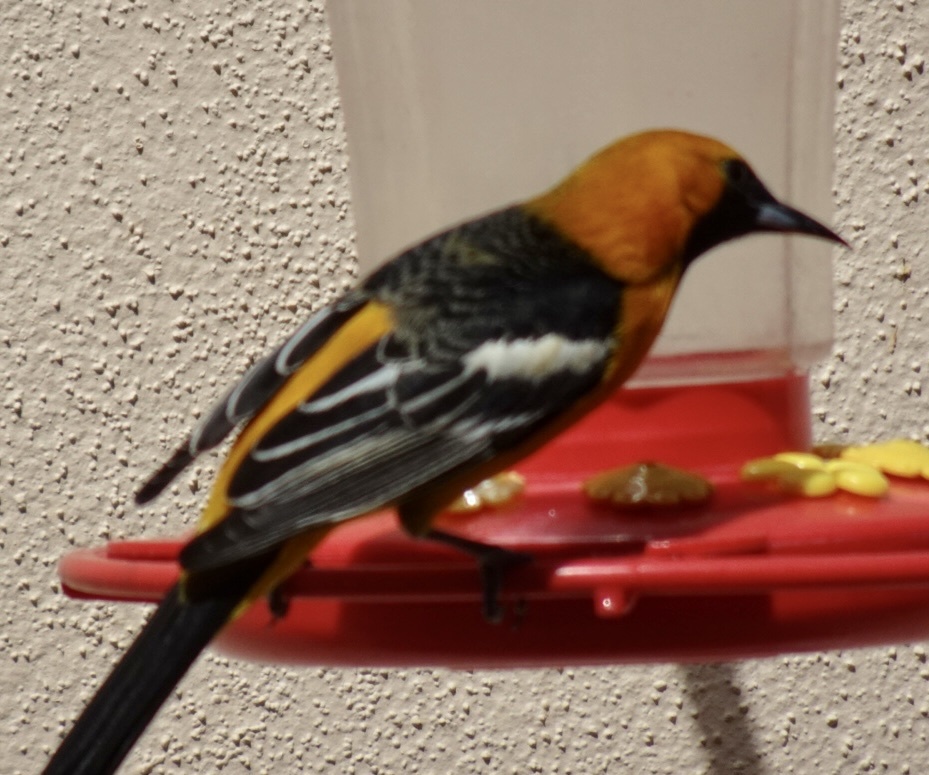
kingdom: Animalia
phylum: Chordata
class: Aves
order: Passeriformes
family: Icteridae
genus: Icterus
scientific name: Icterus cucullatus
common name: Hooded oriole
